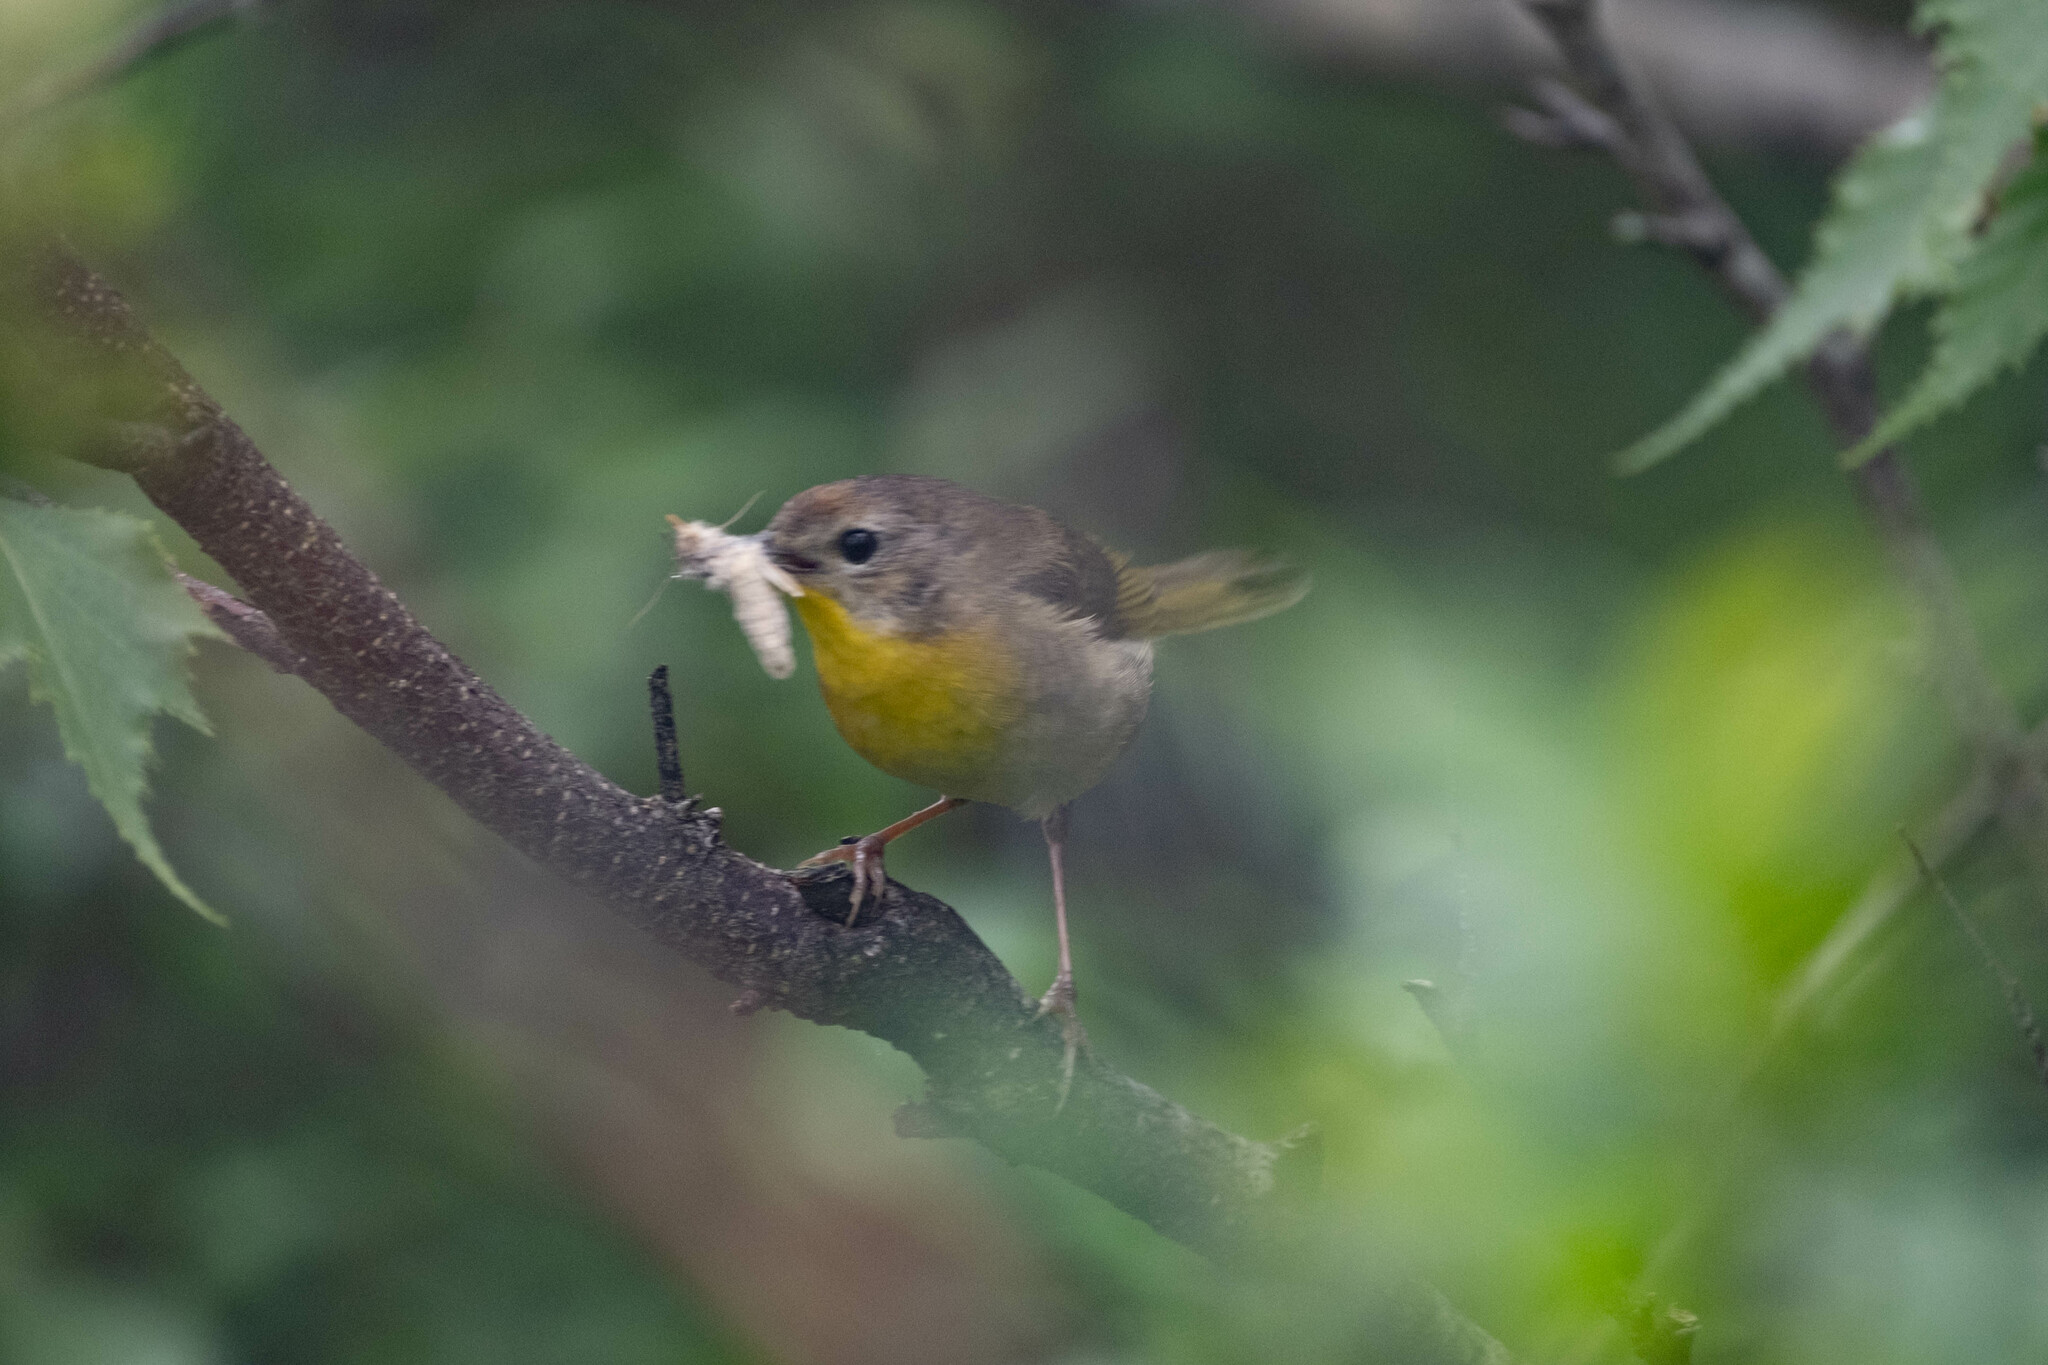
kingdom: Animalia
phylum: Chordata
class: Aves
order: Passeriformes
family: Parulidae
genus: Geothlypis
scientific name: Geothlypis trichas
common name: Common yellowthroat
